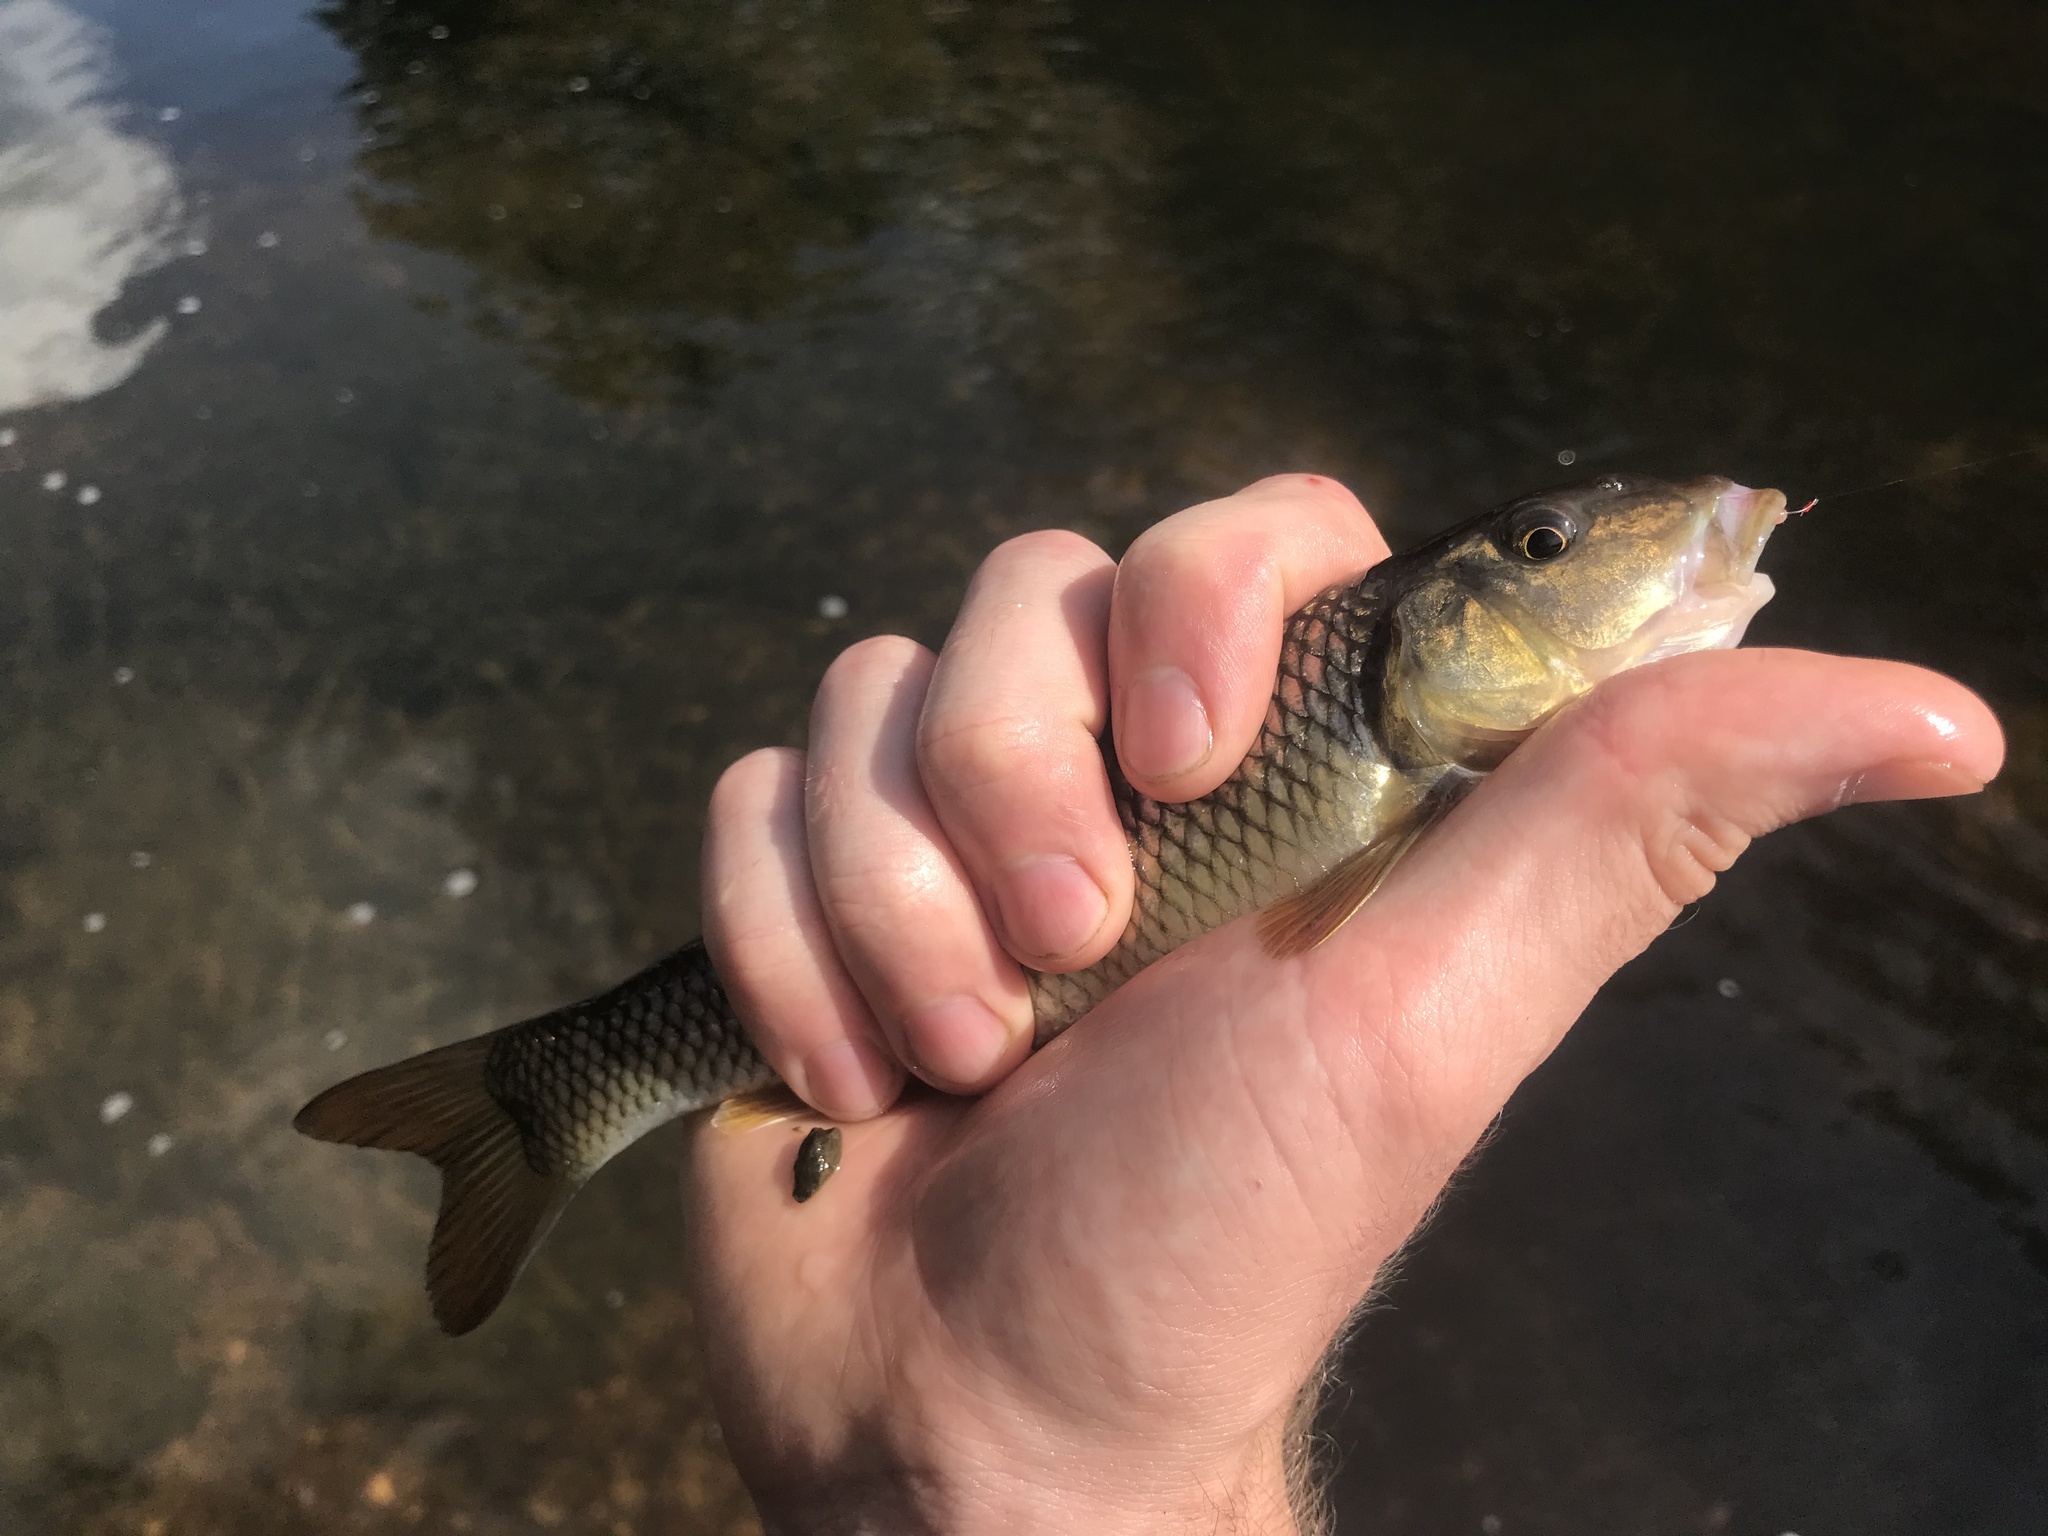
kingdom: Animalia
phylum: Chordata
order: Cypriniformes
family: Cyprinidae
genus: Nocomis
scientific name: Nocomis raneyi
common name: Bull chub
